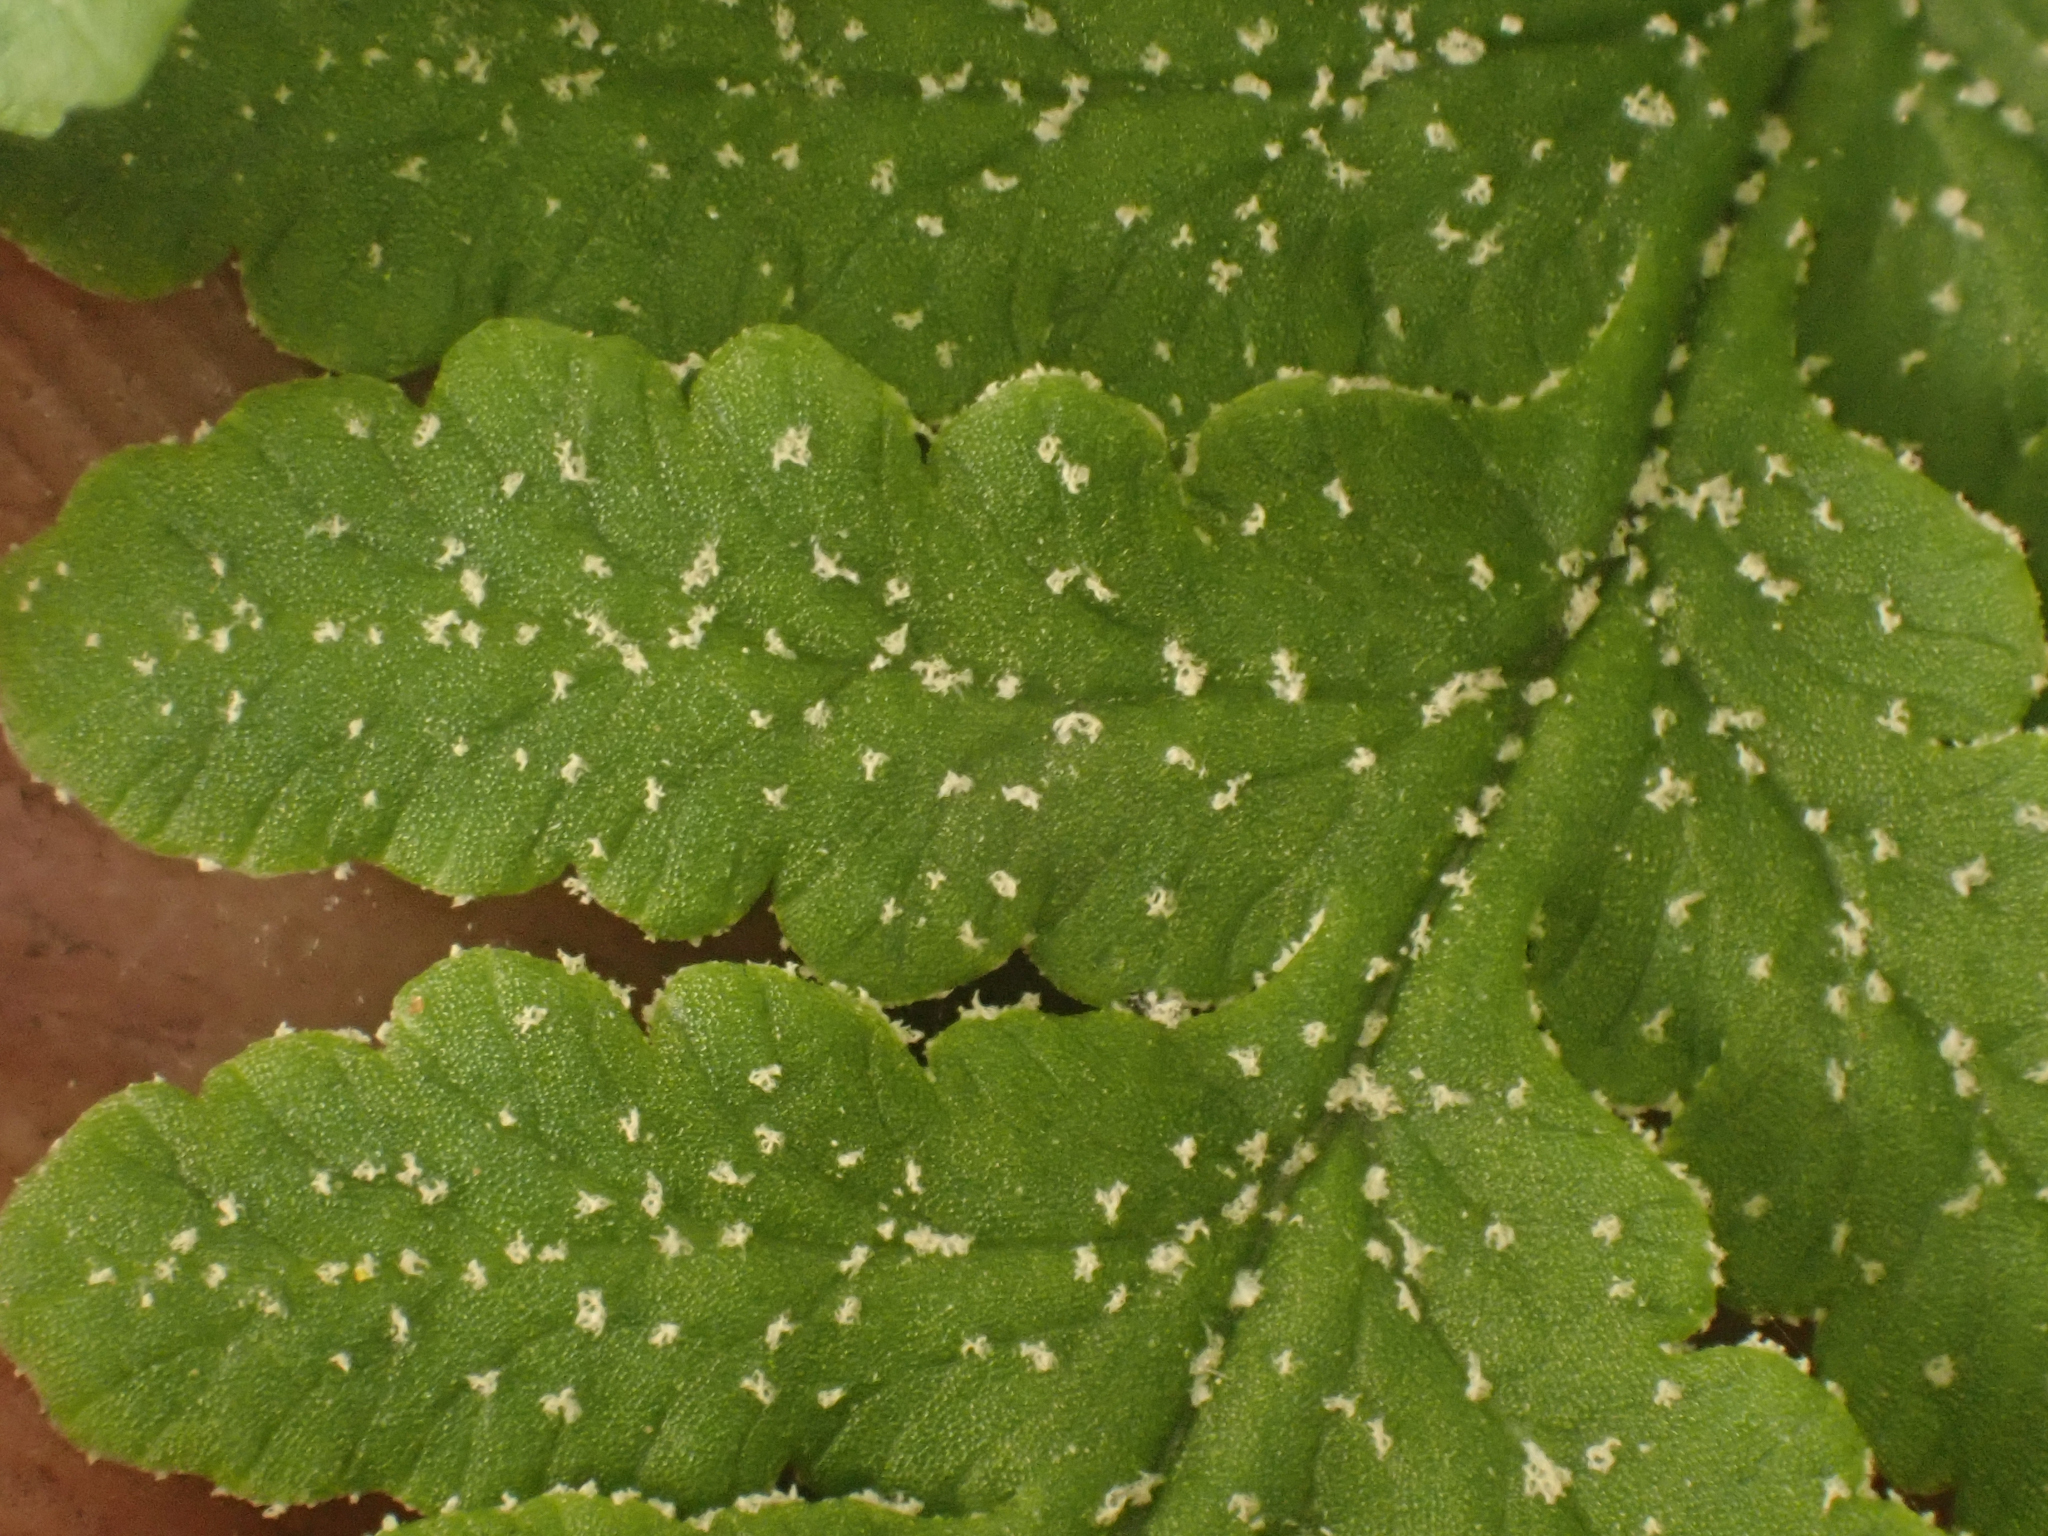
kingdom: Plantae
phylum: Tracheophyta
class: Polypodiopsida
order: Polypodiales
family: Pteridaceae
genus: Pentagramma
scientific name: Pentagramma rebmanii
